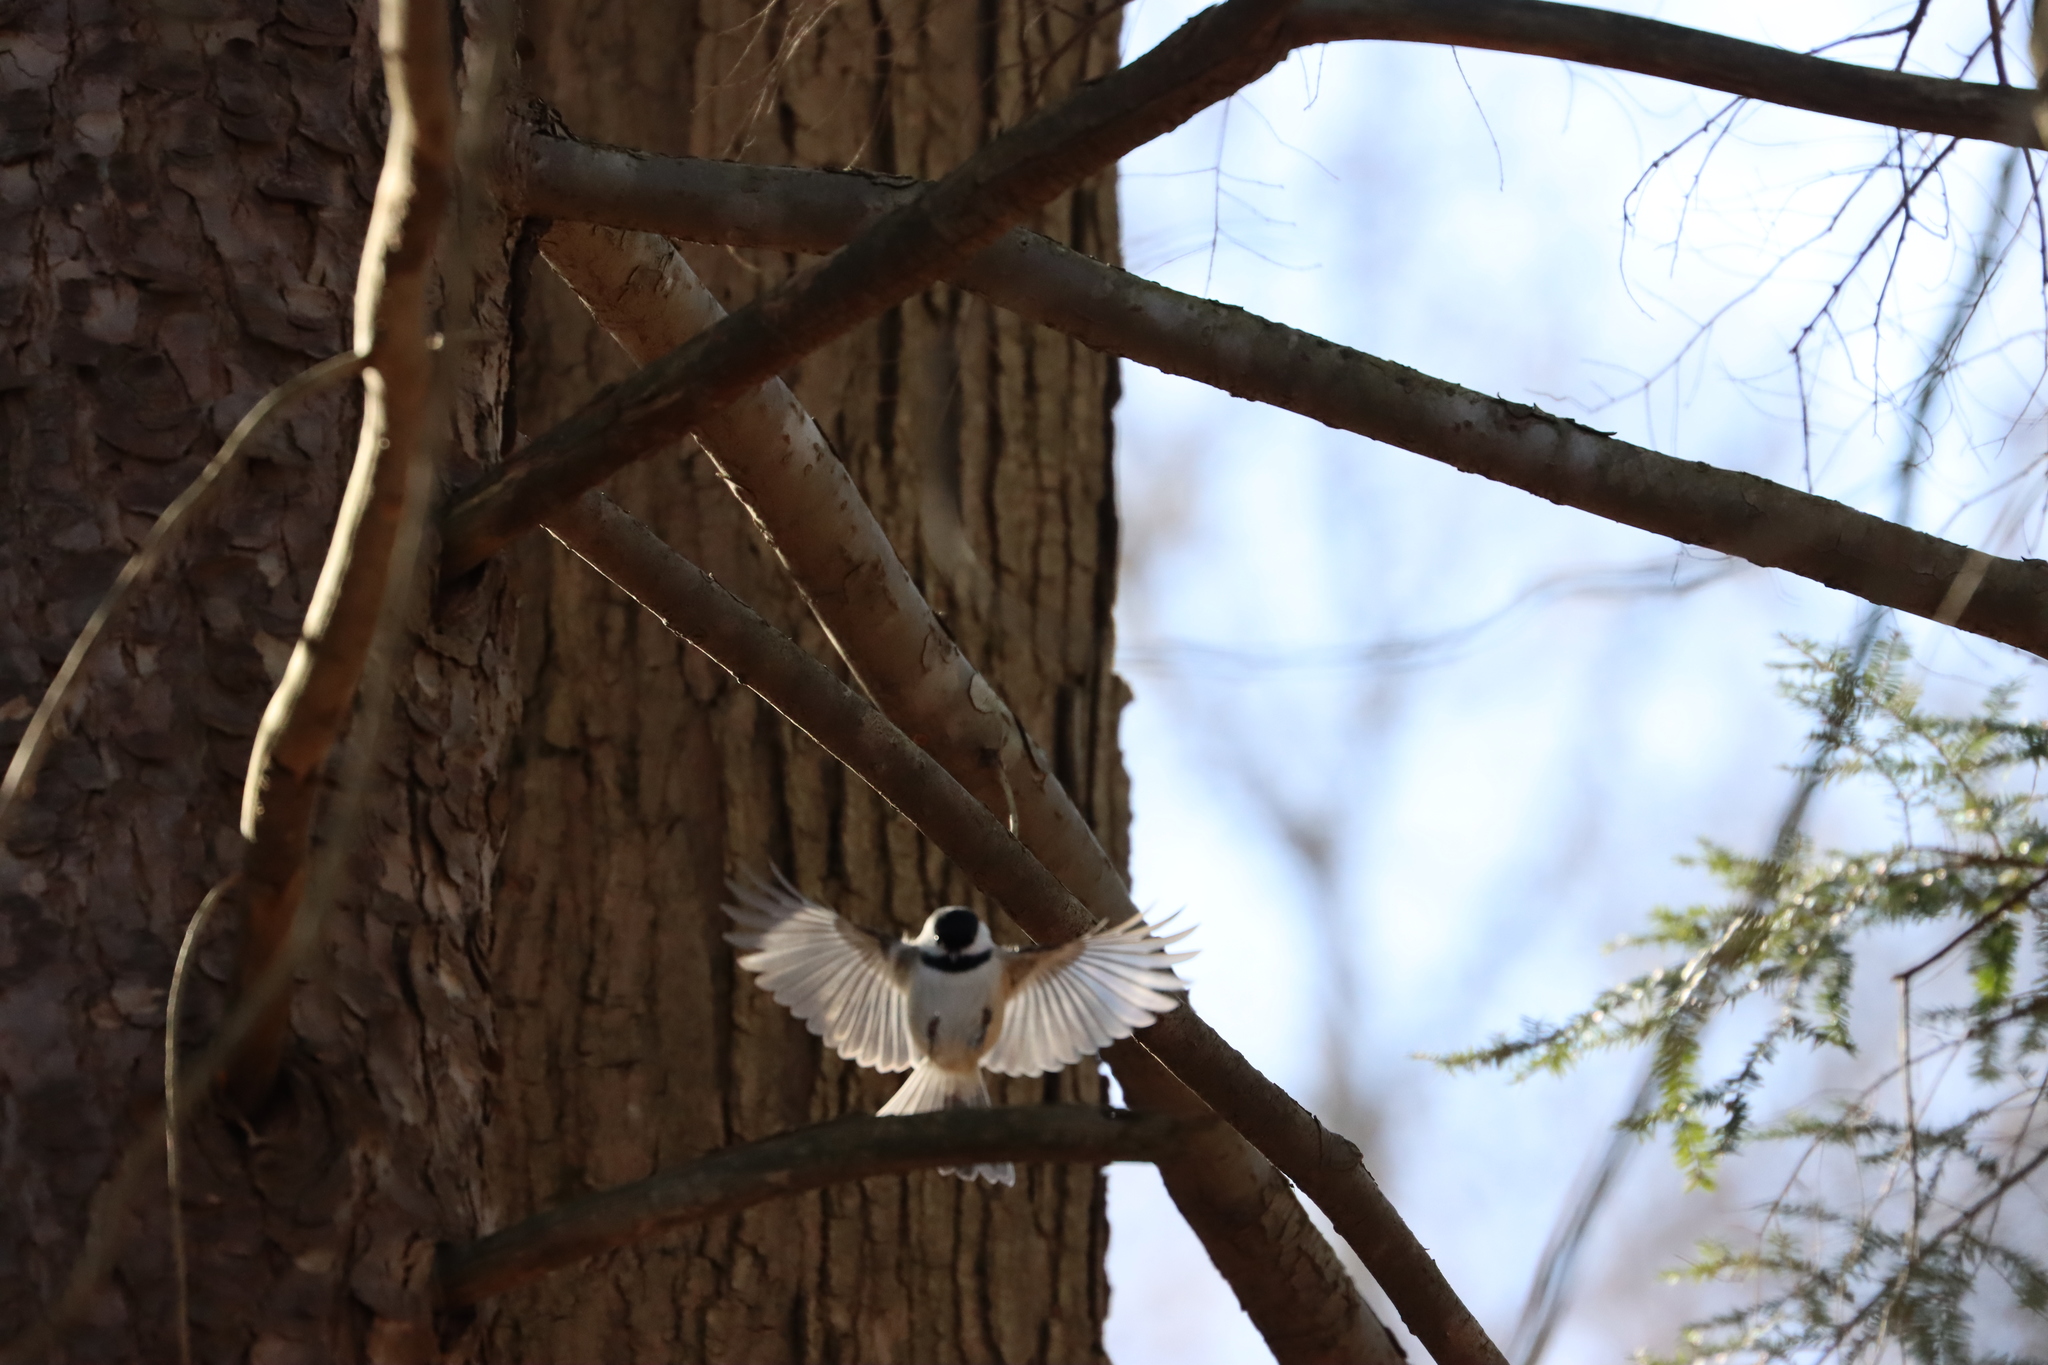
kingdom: Animalia
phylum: Chordata
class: Aves
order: Passeriformes
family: Paridae
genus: Poecile
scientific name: Poecile atricapillus
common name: Black-capped chickadee
